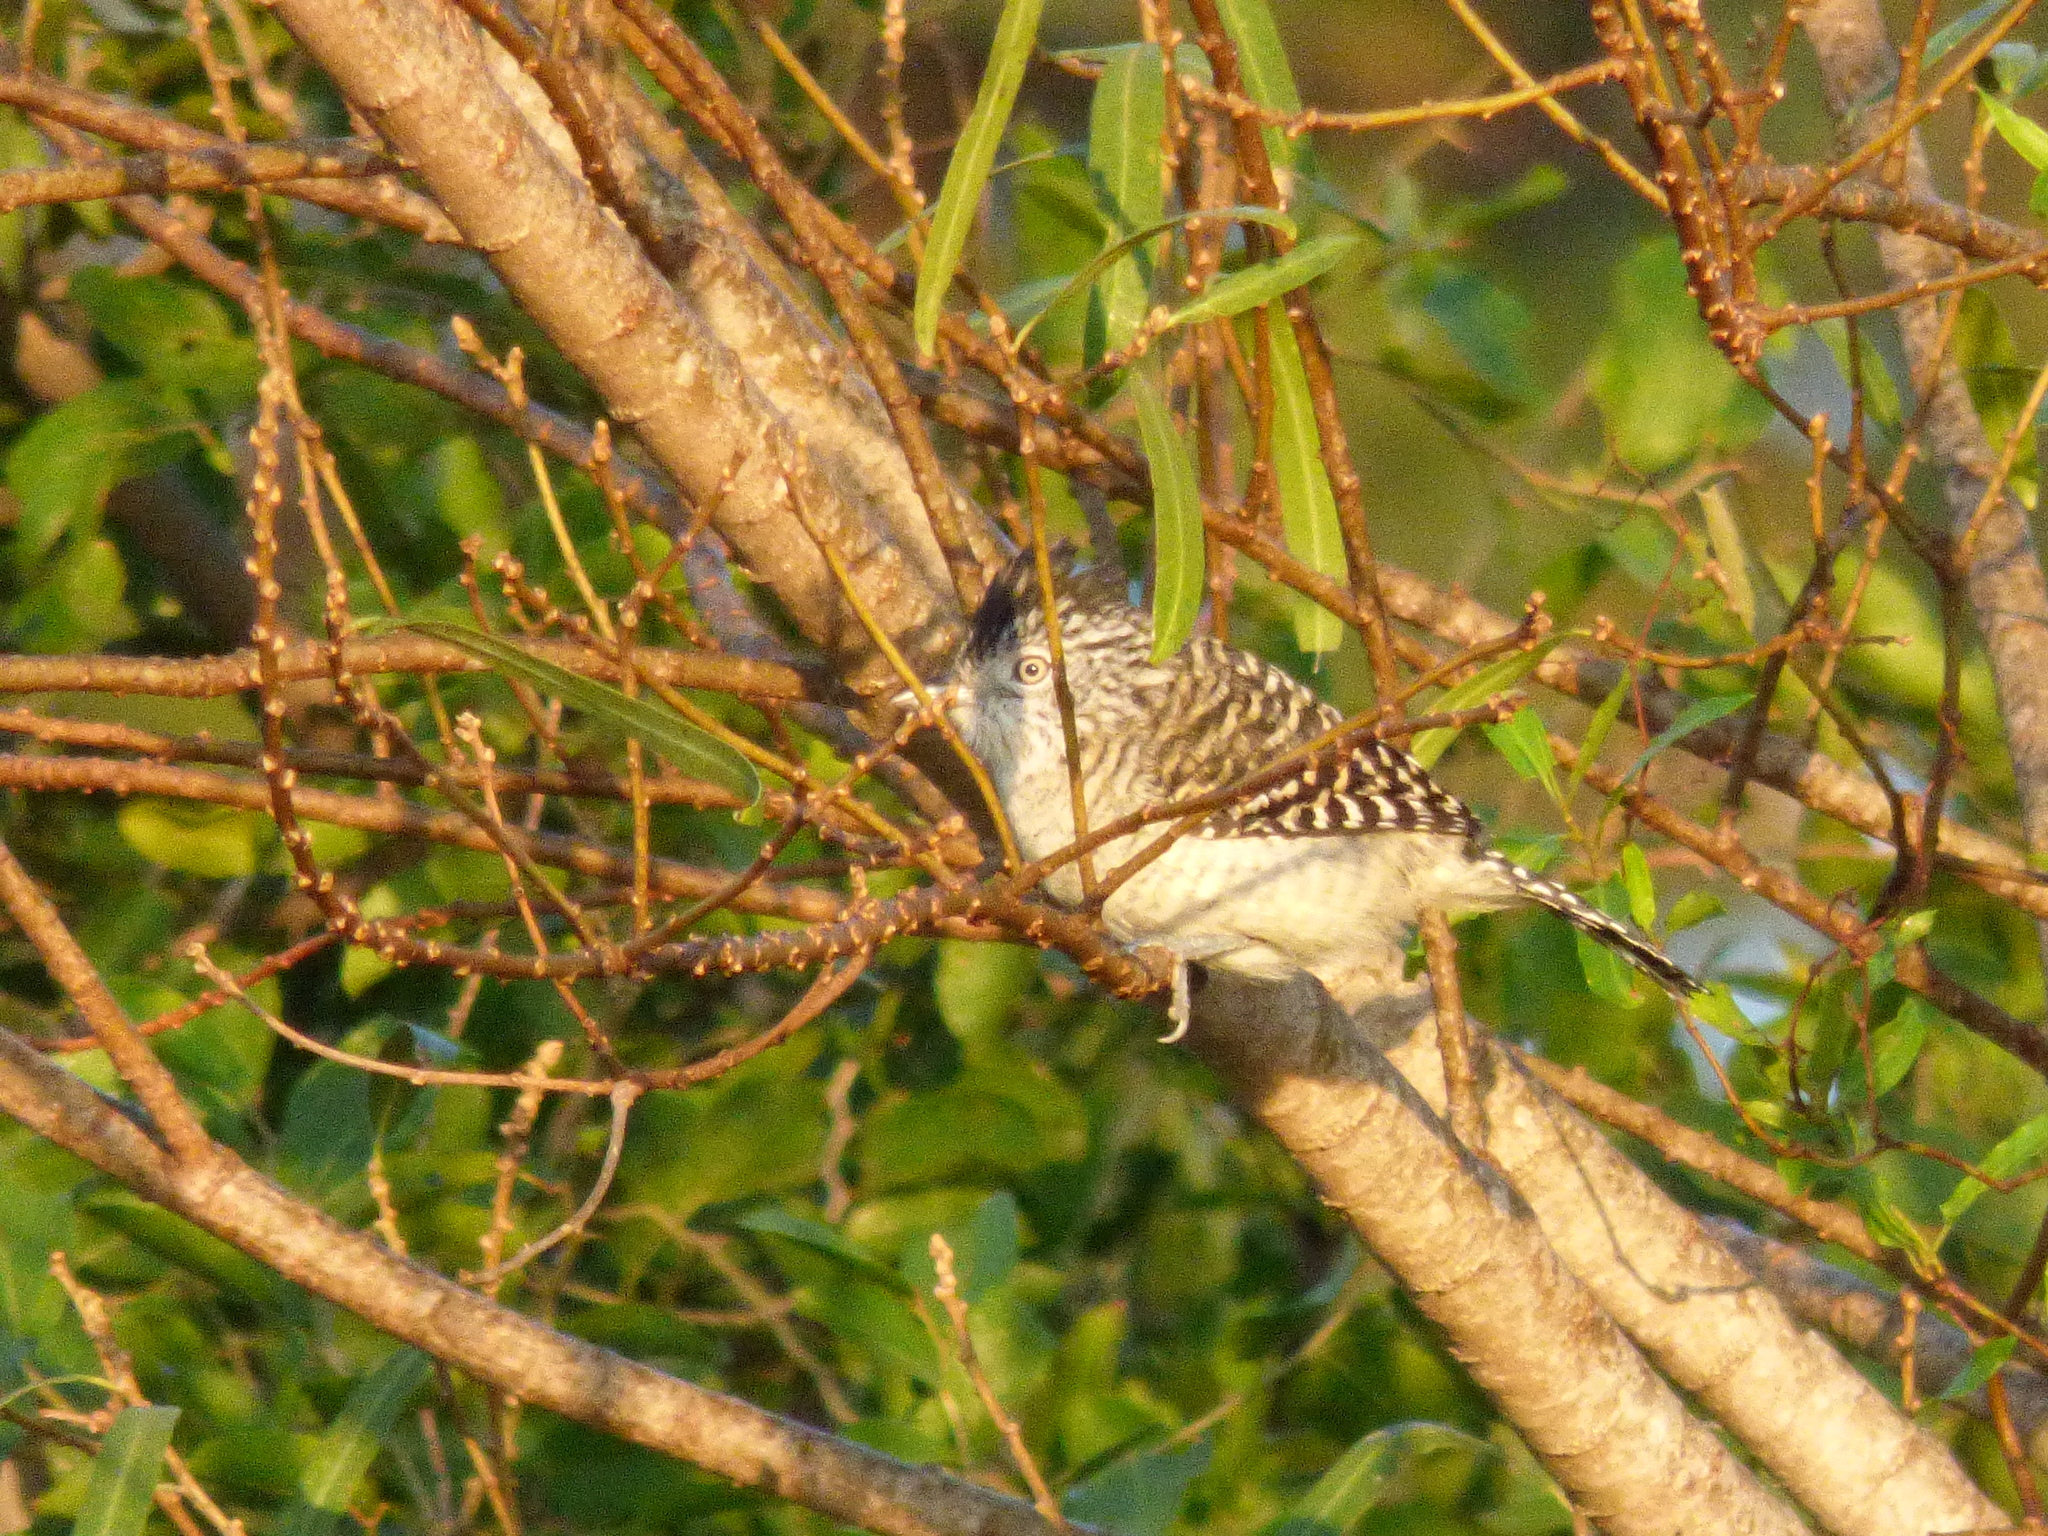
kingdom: Animalia
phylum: Chordata
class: Aves
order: Passeriformes
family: Thamnophilidae
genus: Thamnophilus
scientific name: Thamnophilus doliatus
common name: Barred antshrike
